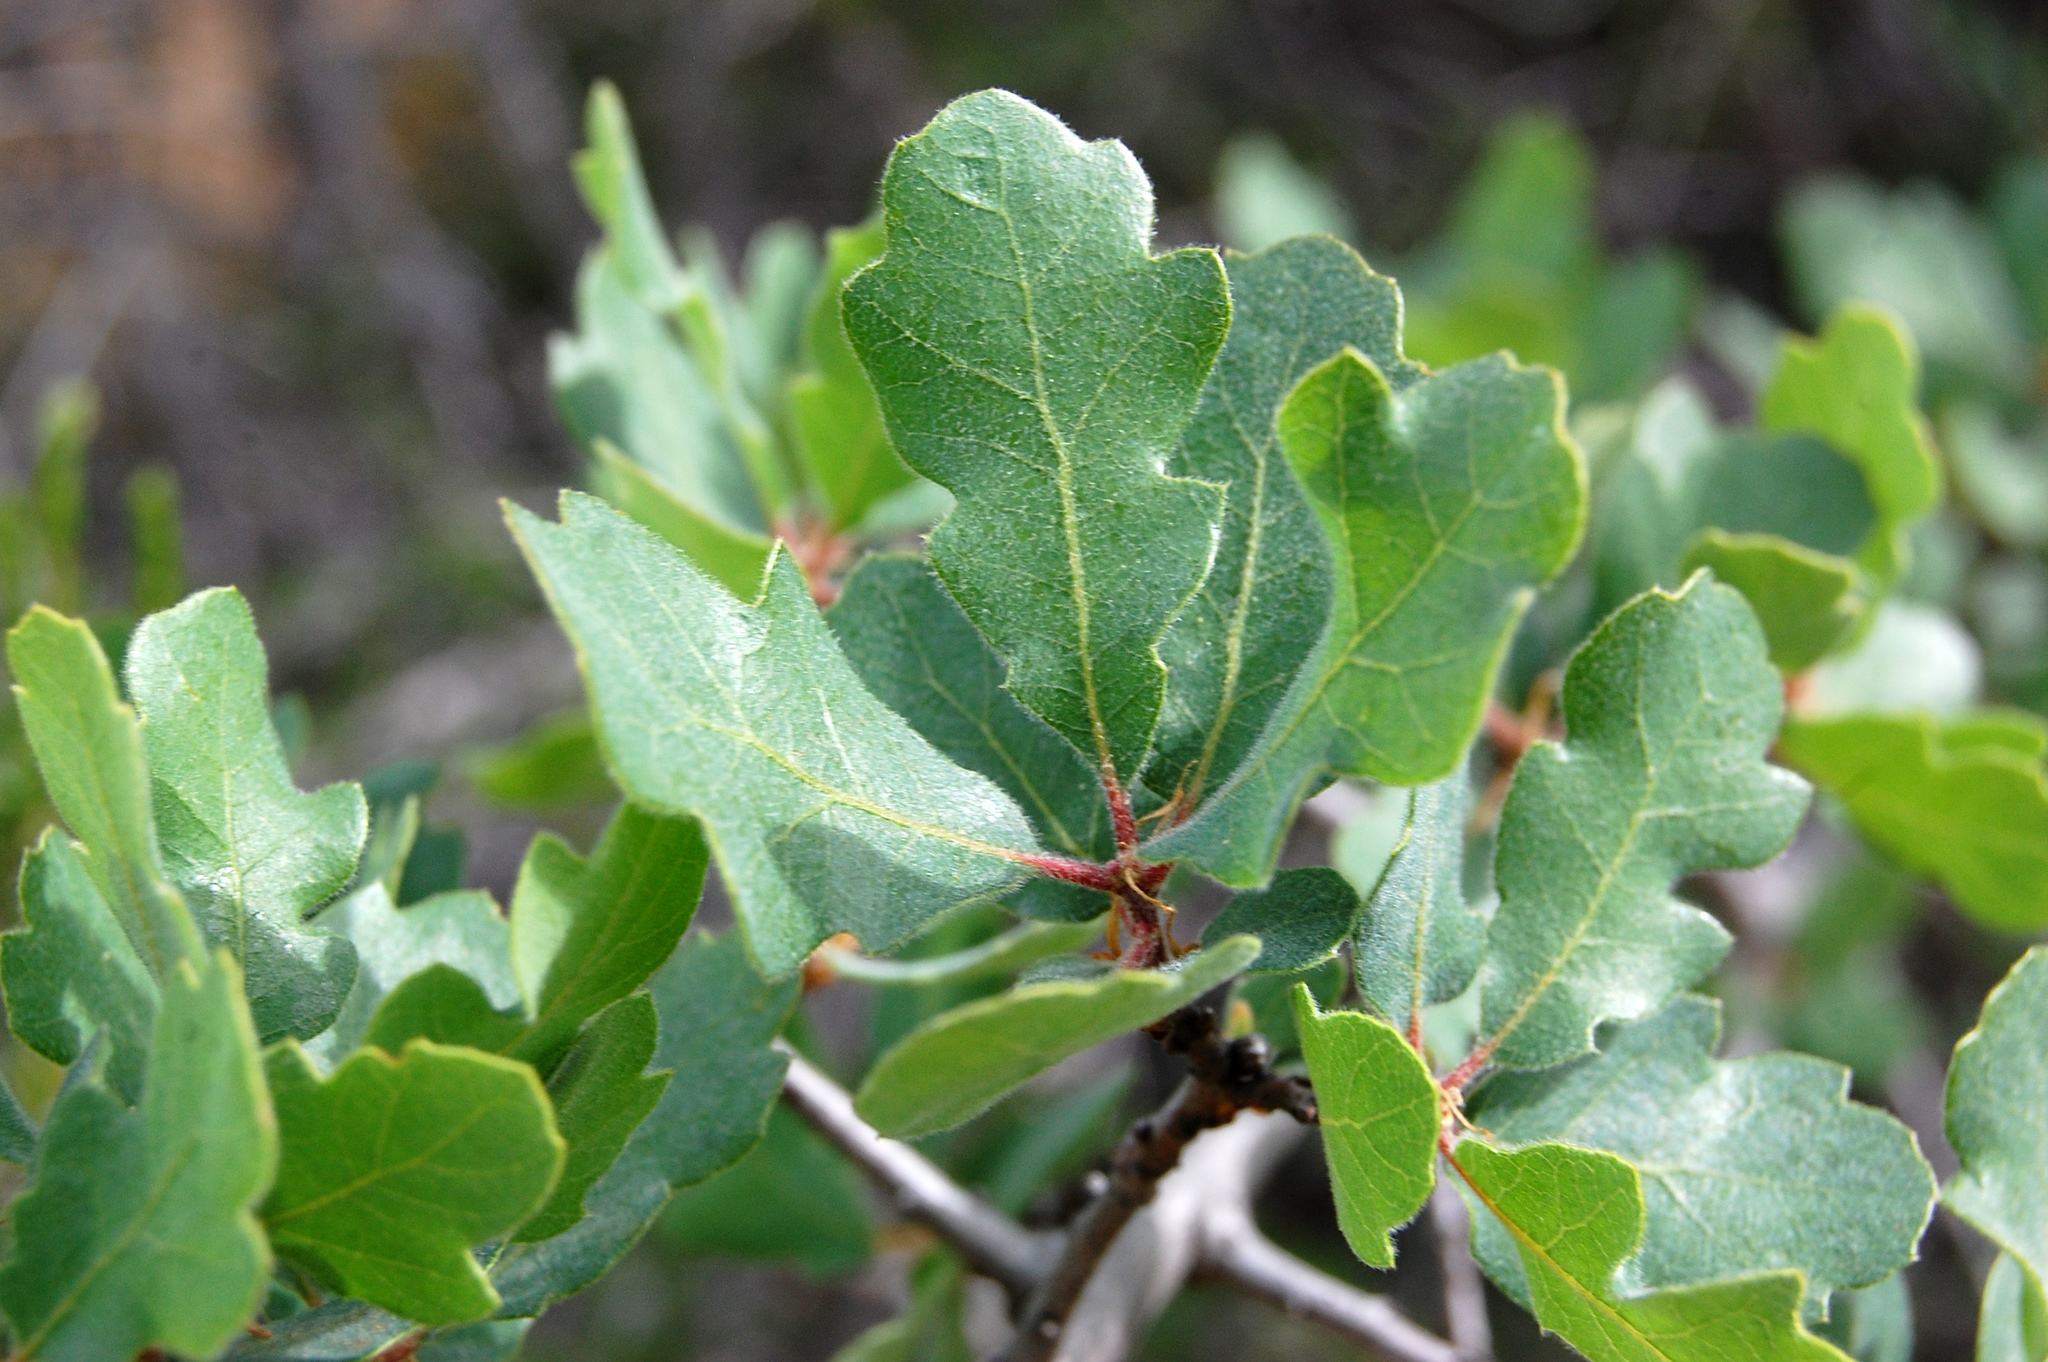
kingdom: Plantae
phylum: Tracheophyta
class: Magnoliopsida
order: Fagales
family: Fagaceae
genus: Quercus
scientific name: Quercus douglasii
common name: Blue oak
